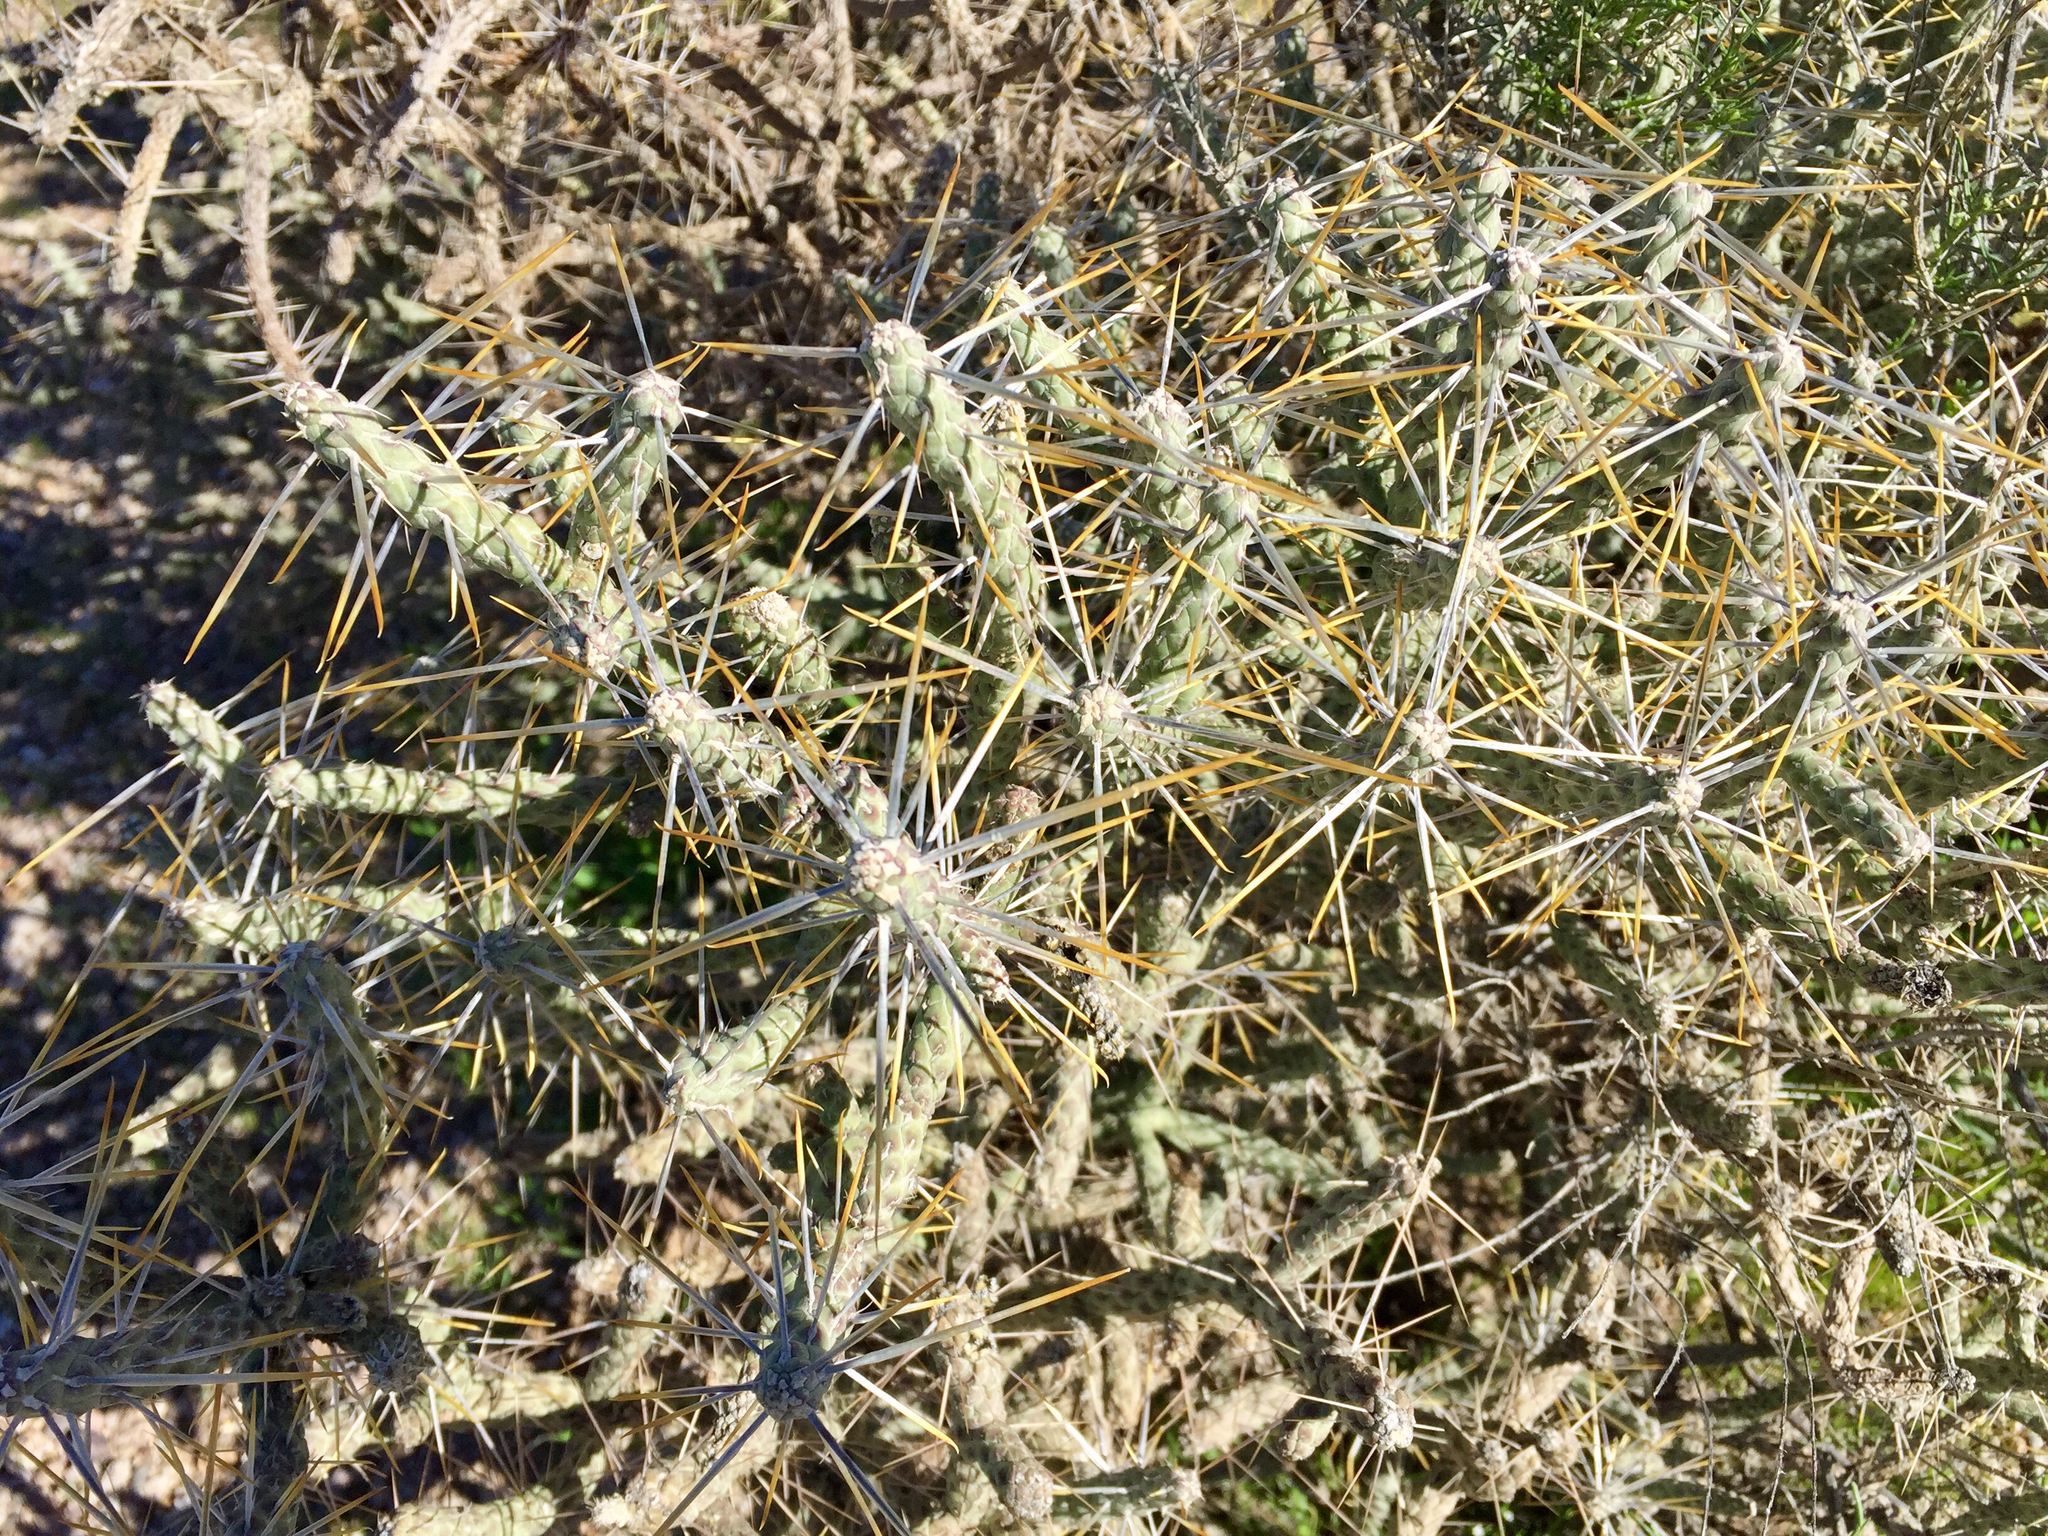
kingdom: Plantae
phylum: Tracheophyta
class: Magnoliopsida
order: Caryophyllales
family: Cactaceae
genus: Cylindropuntia
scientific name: Cylindropuntia ramosissima
